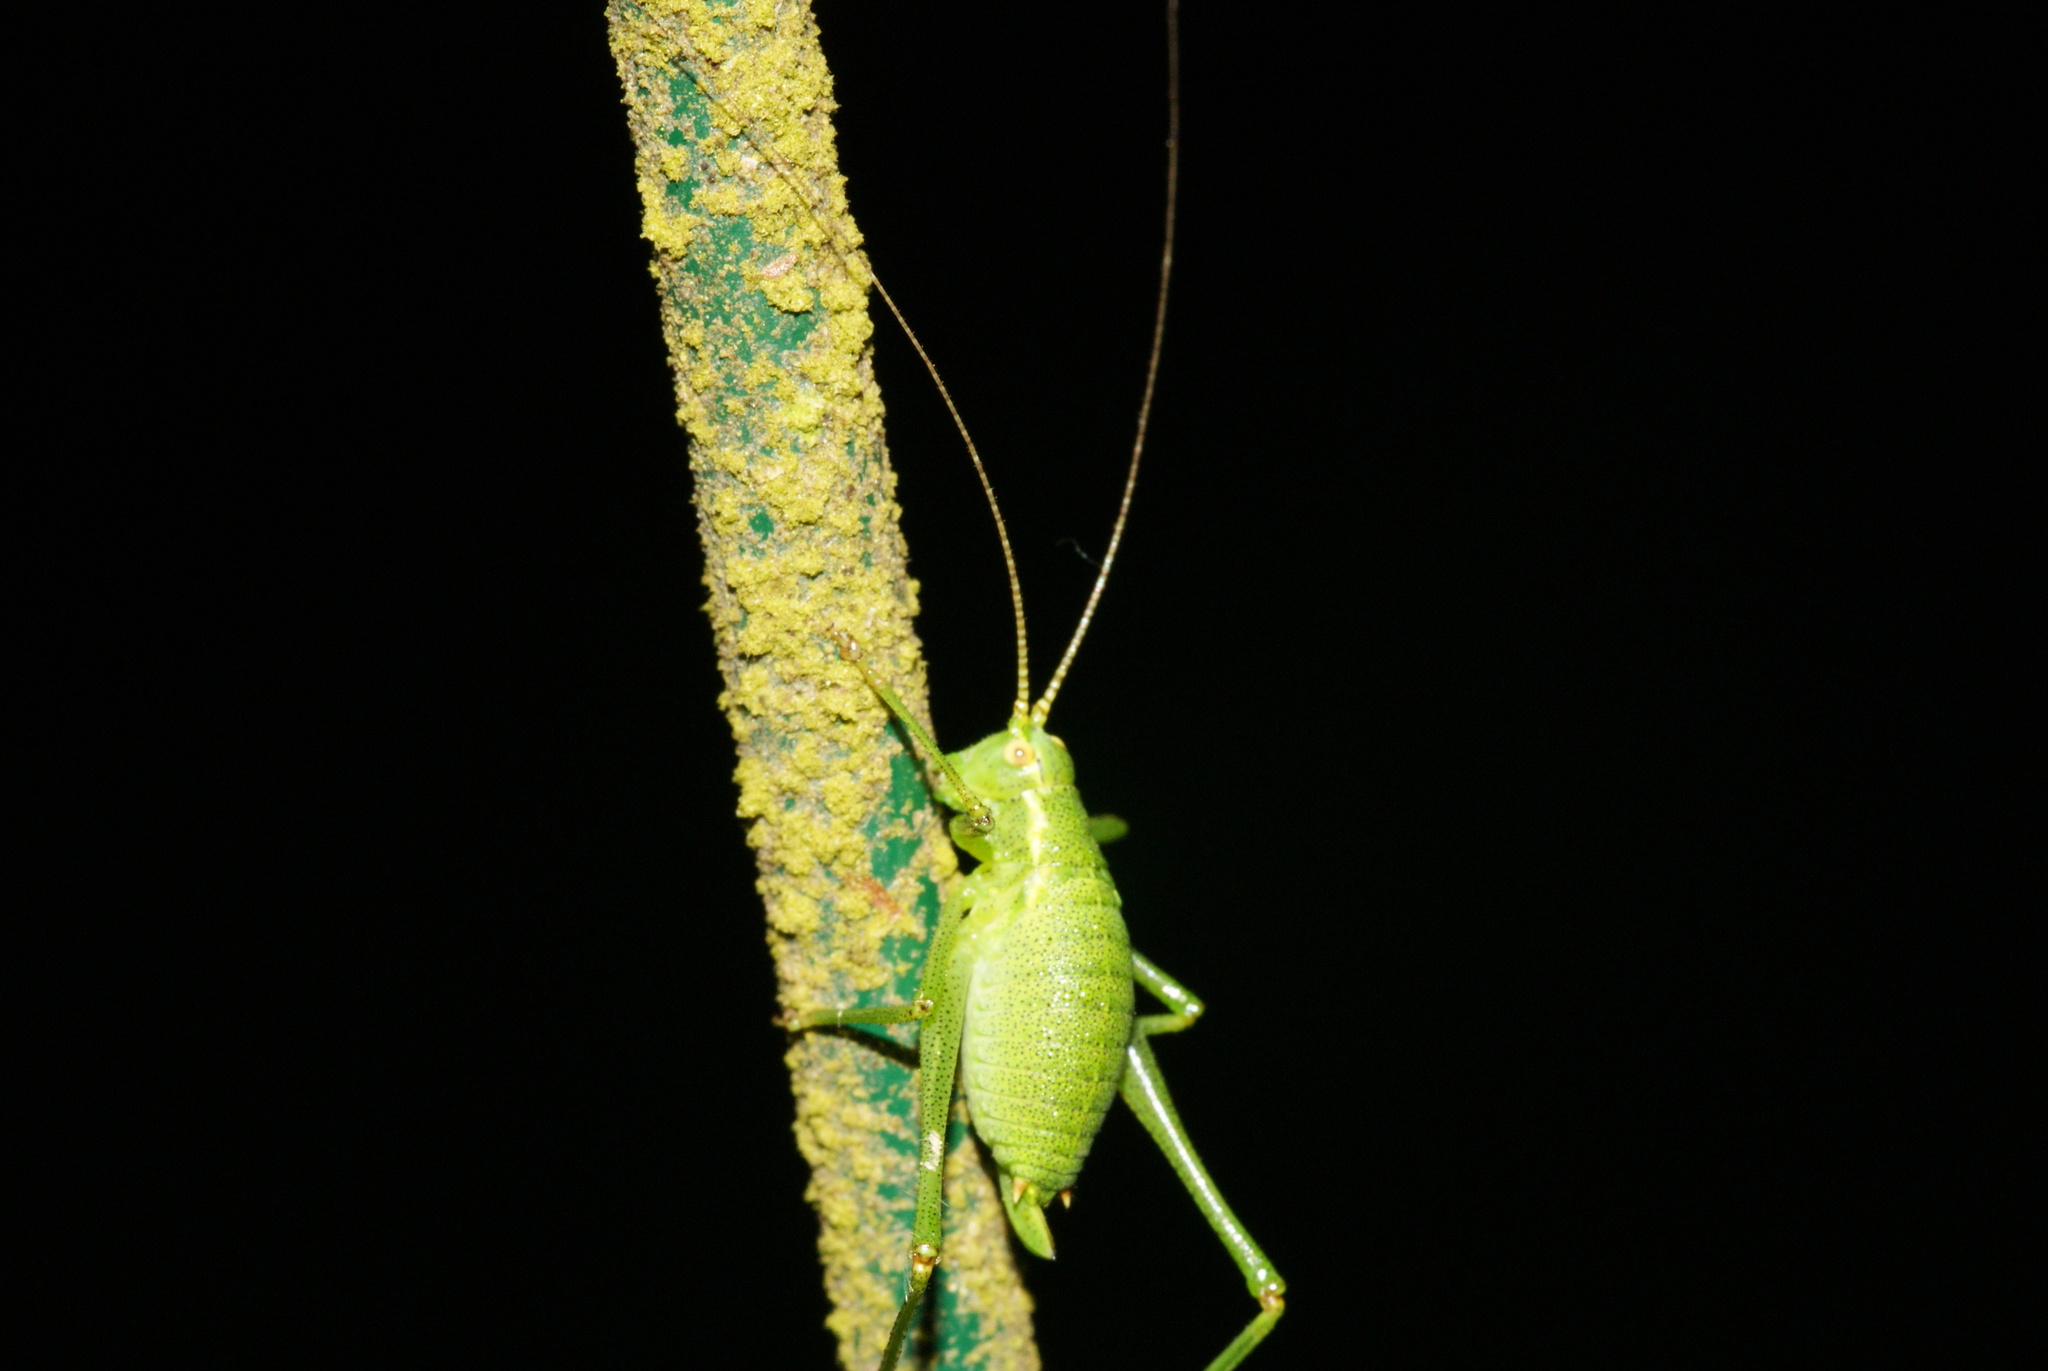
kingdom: Animalia
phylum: Arthropoda
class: Insecta
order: Orthoptera
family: Tettigoniidae
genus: Leptophyes
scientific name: Leptophyes punctatissima
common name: Speckled bush-cricket
